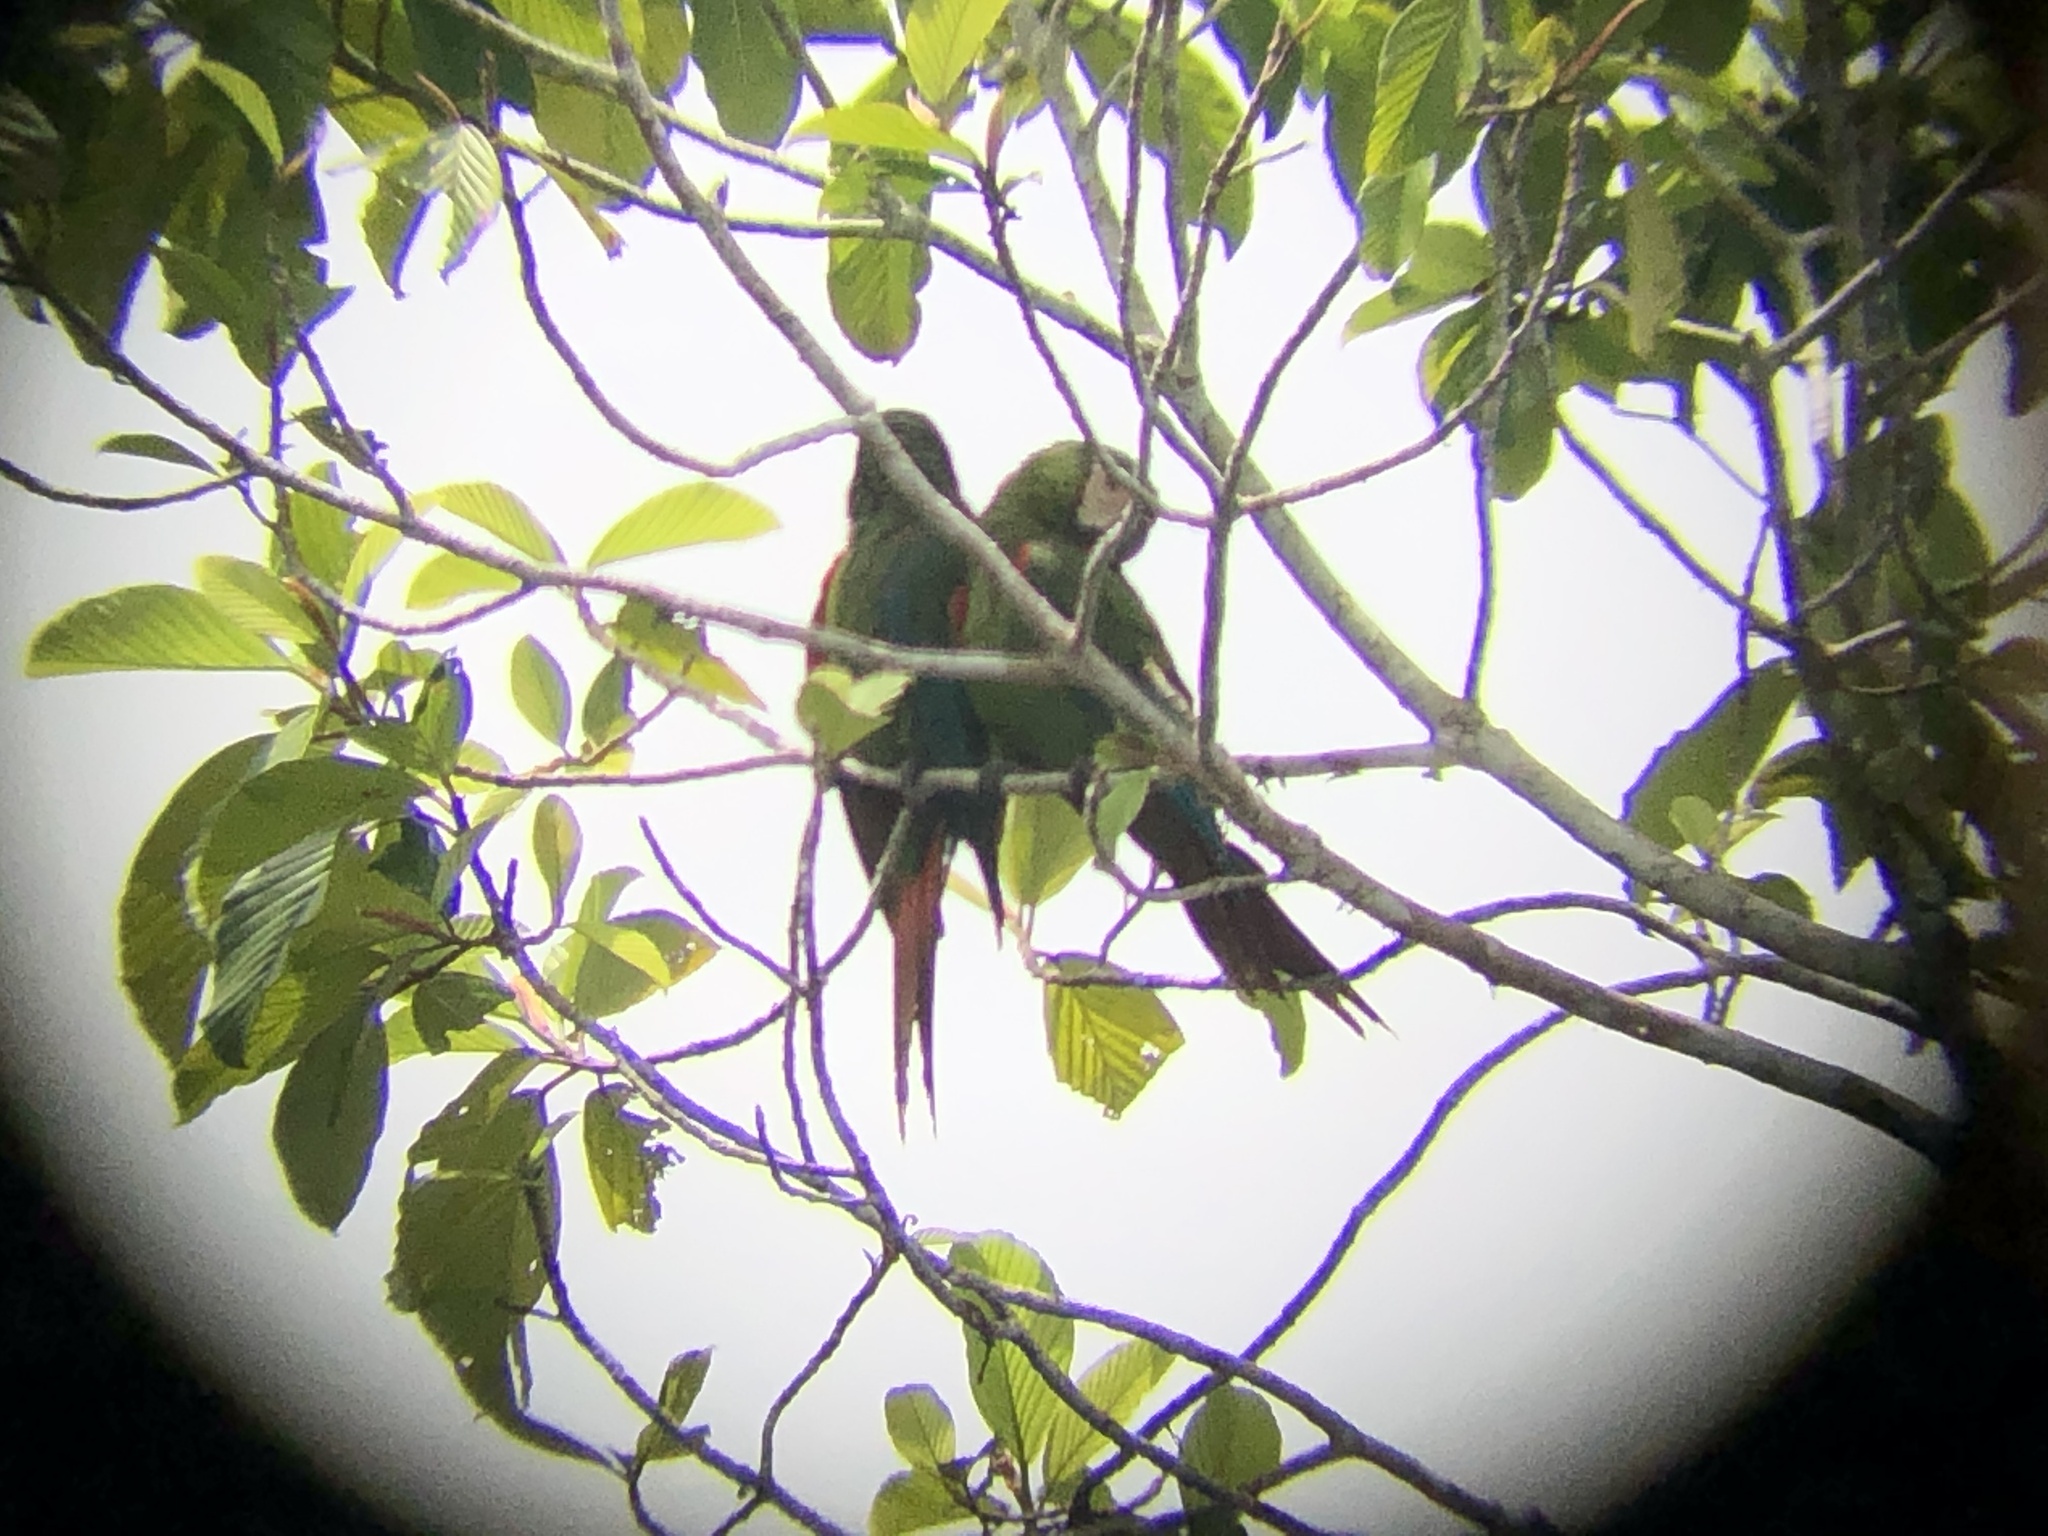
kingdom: Animalia
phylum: Chordata
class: Aves
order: Psittaciformes
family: Psittacidae
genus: Ara
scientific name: Ara severus
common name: Chestnut-fronted macaw
